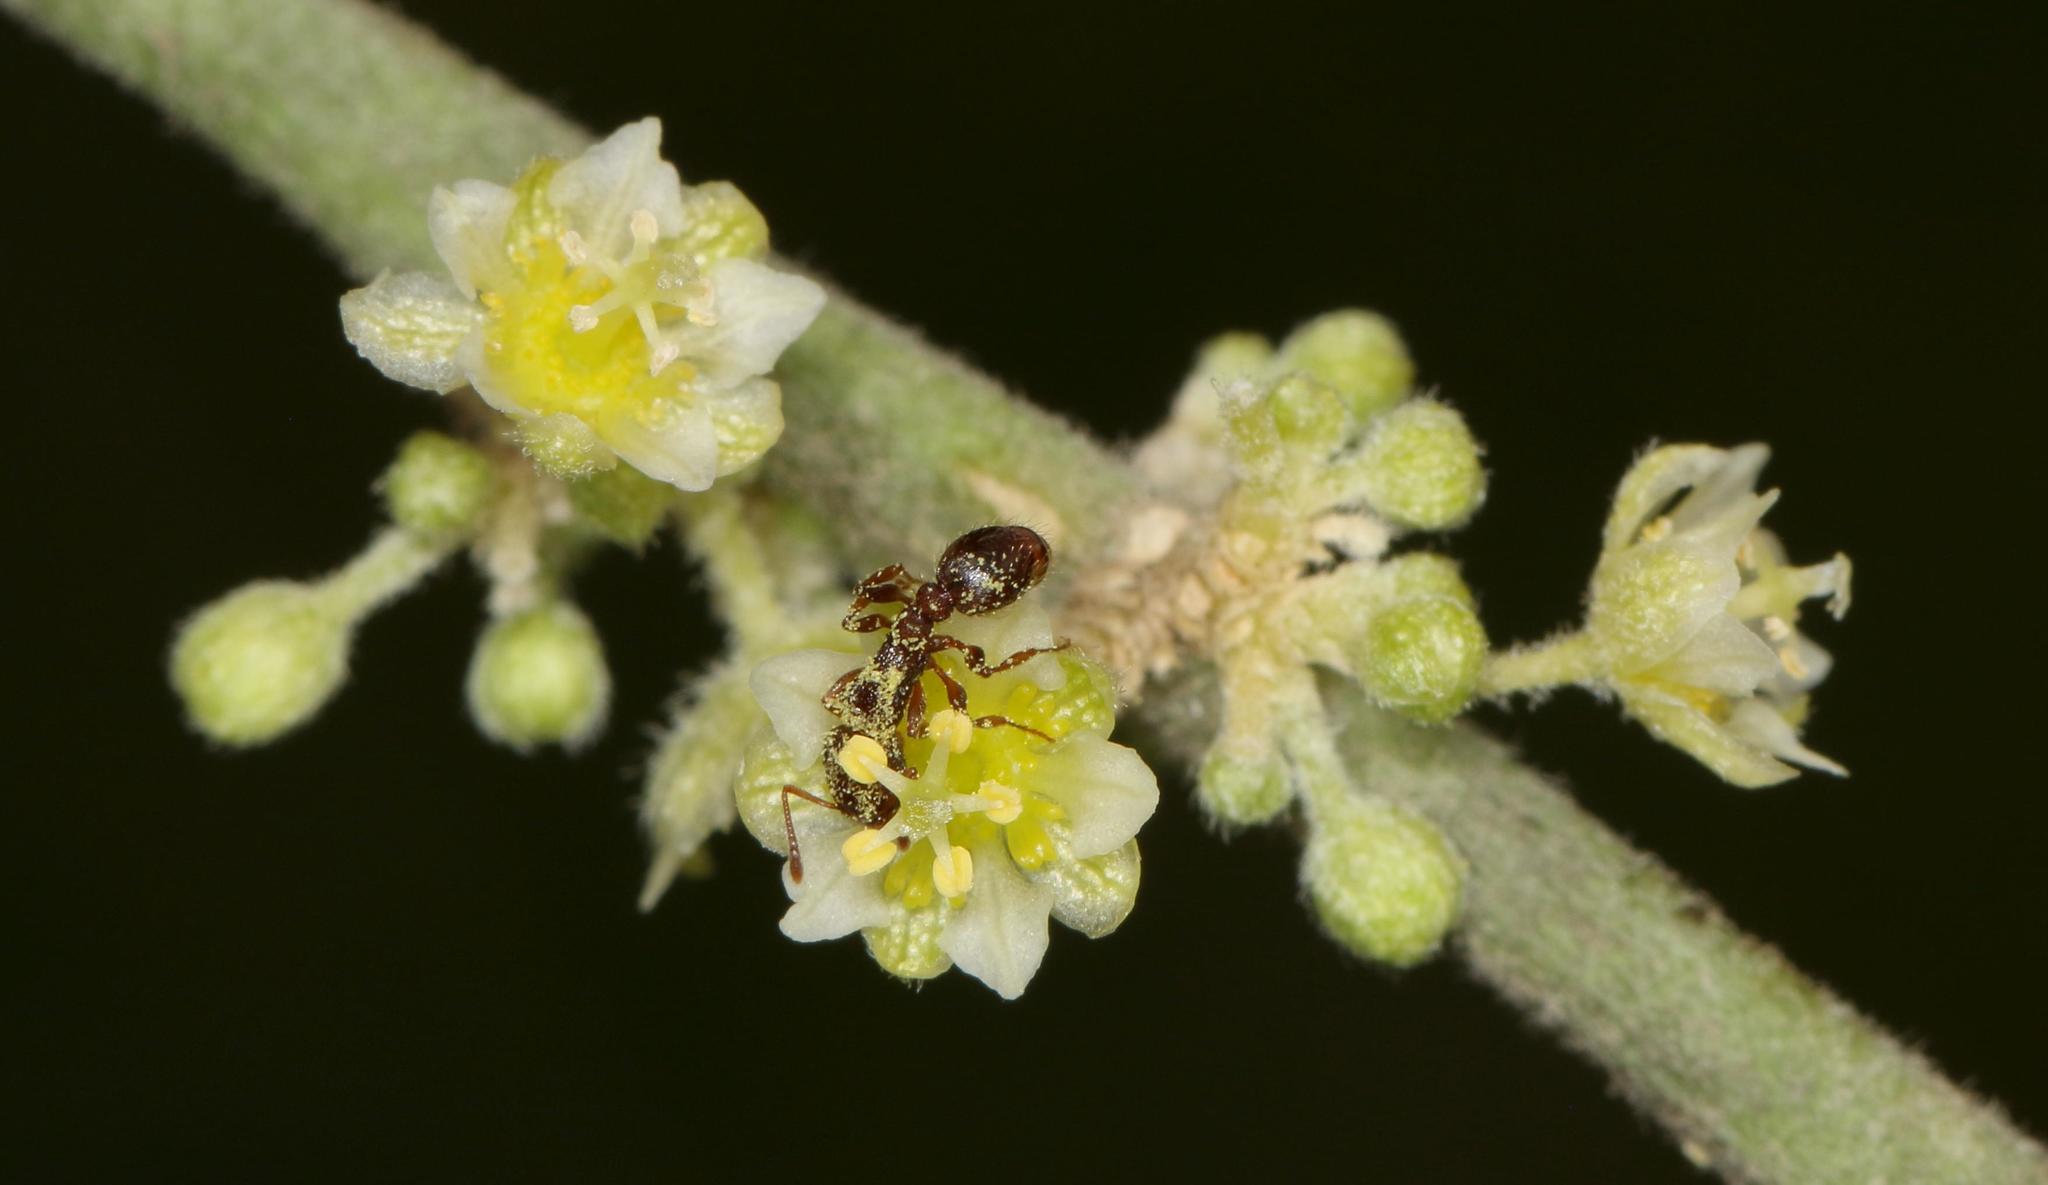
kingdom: Plantae
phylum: Tracheophyta
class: Magnoliopsida
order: Malpighiales
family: Peraceae
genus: Clutia
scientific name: Clutia hirsuta
